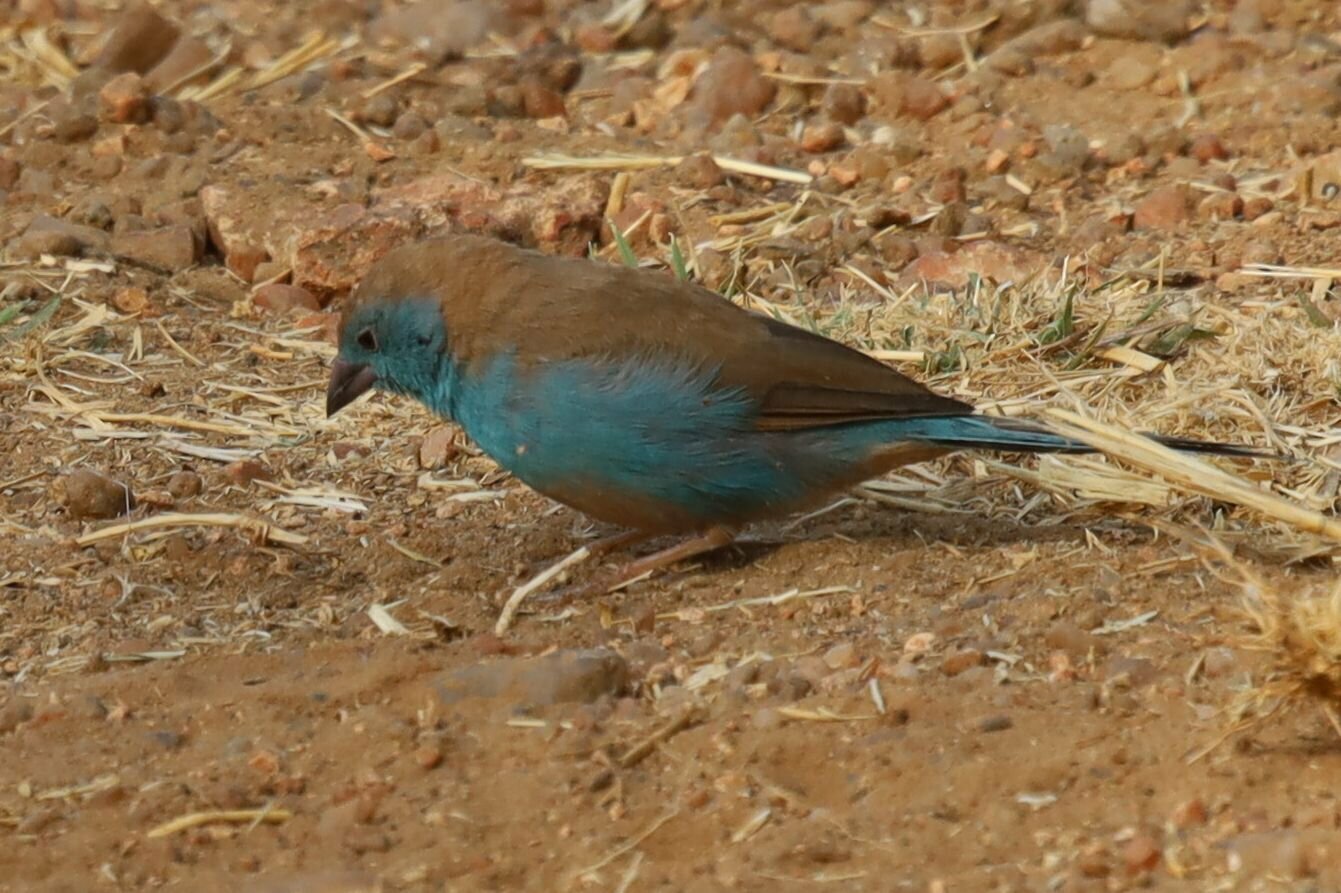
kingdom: Animalia
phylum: Chordata
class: Aves
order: Passeriformes
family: Estrildidae
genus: Uraeginthus
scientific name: Uraeginthus angolensis
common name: Blue waxbill
